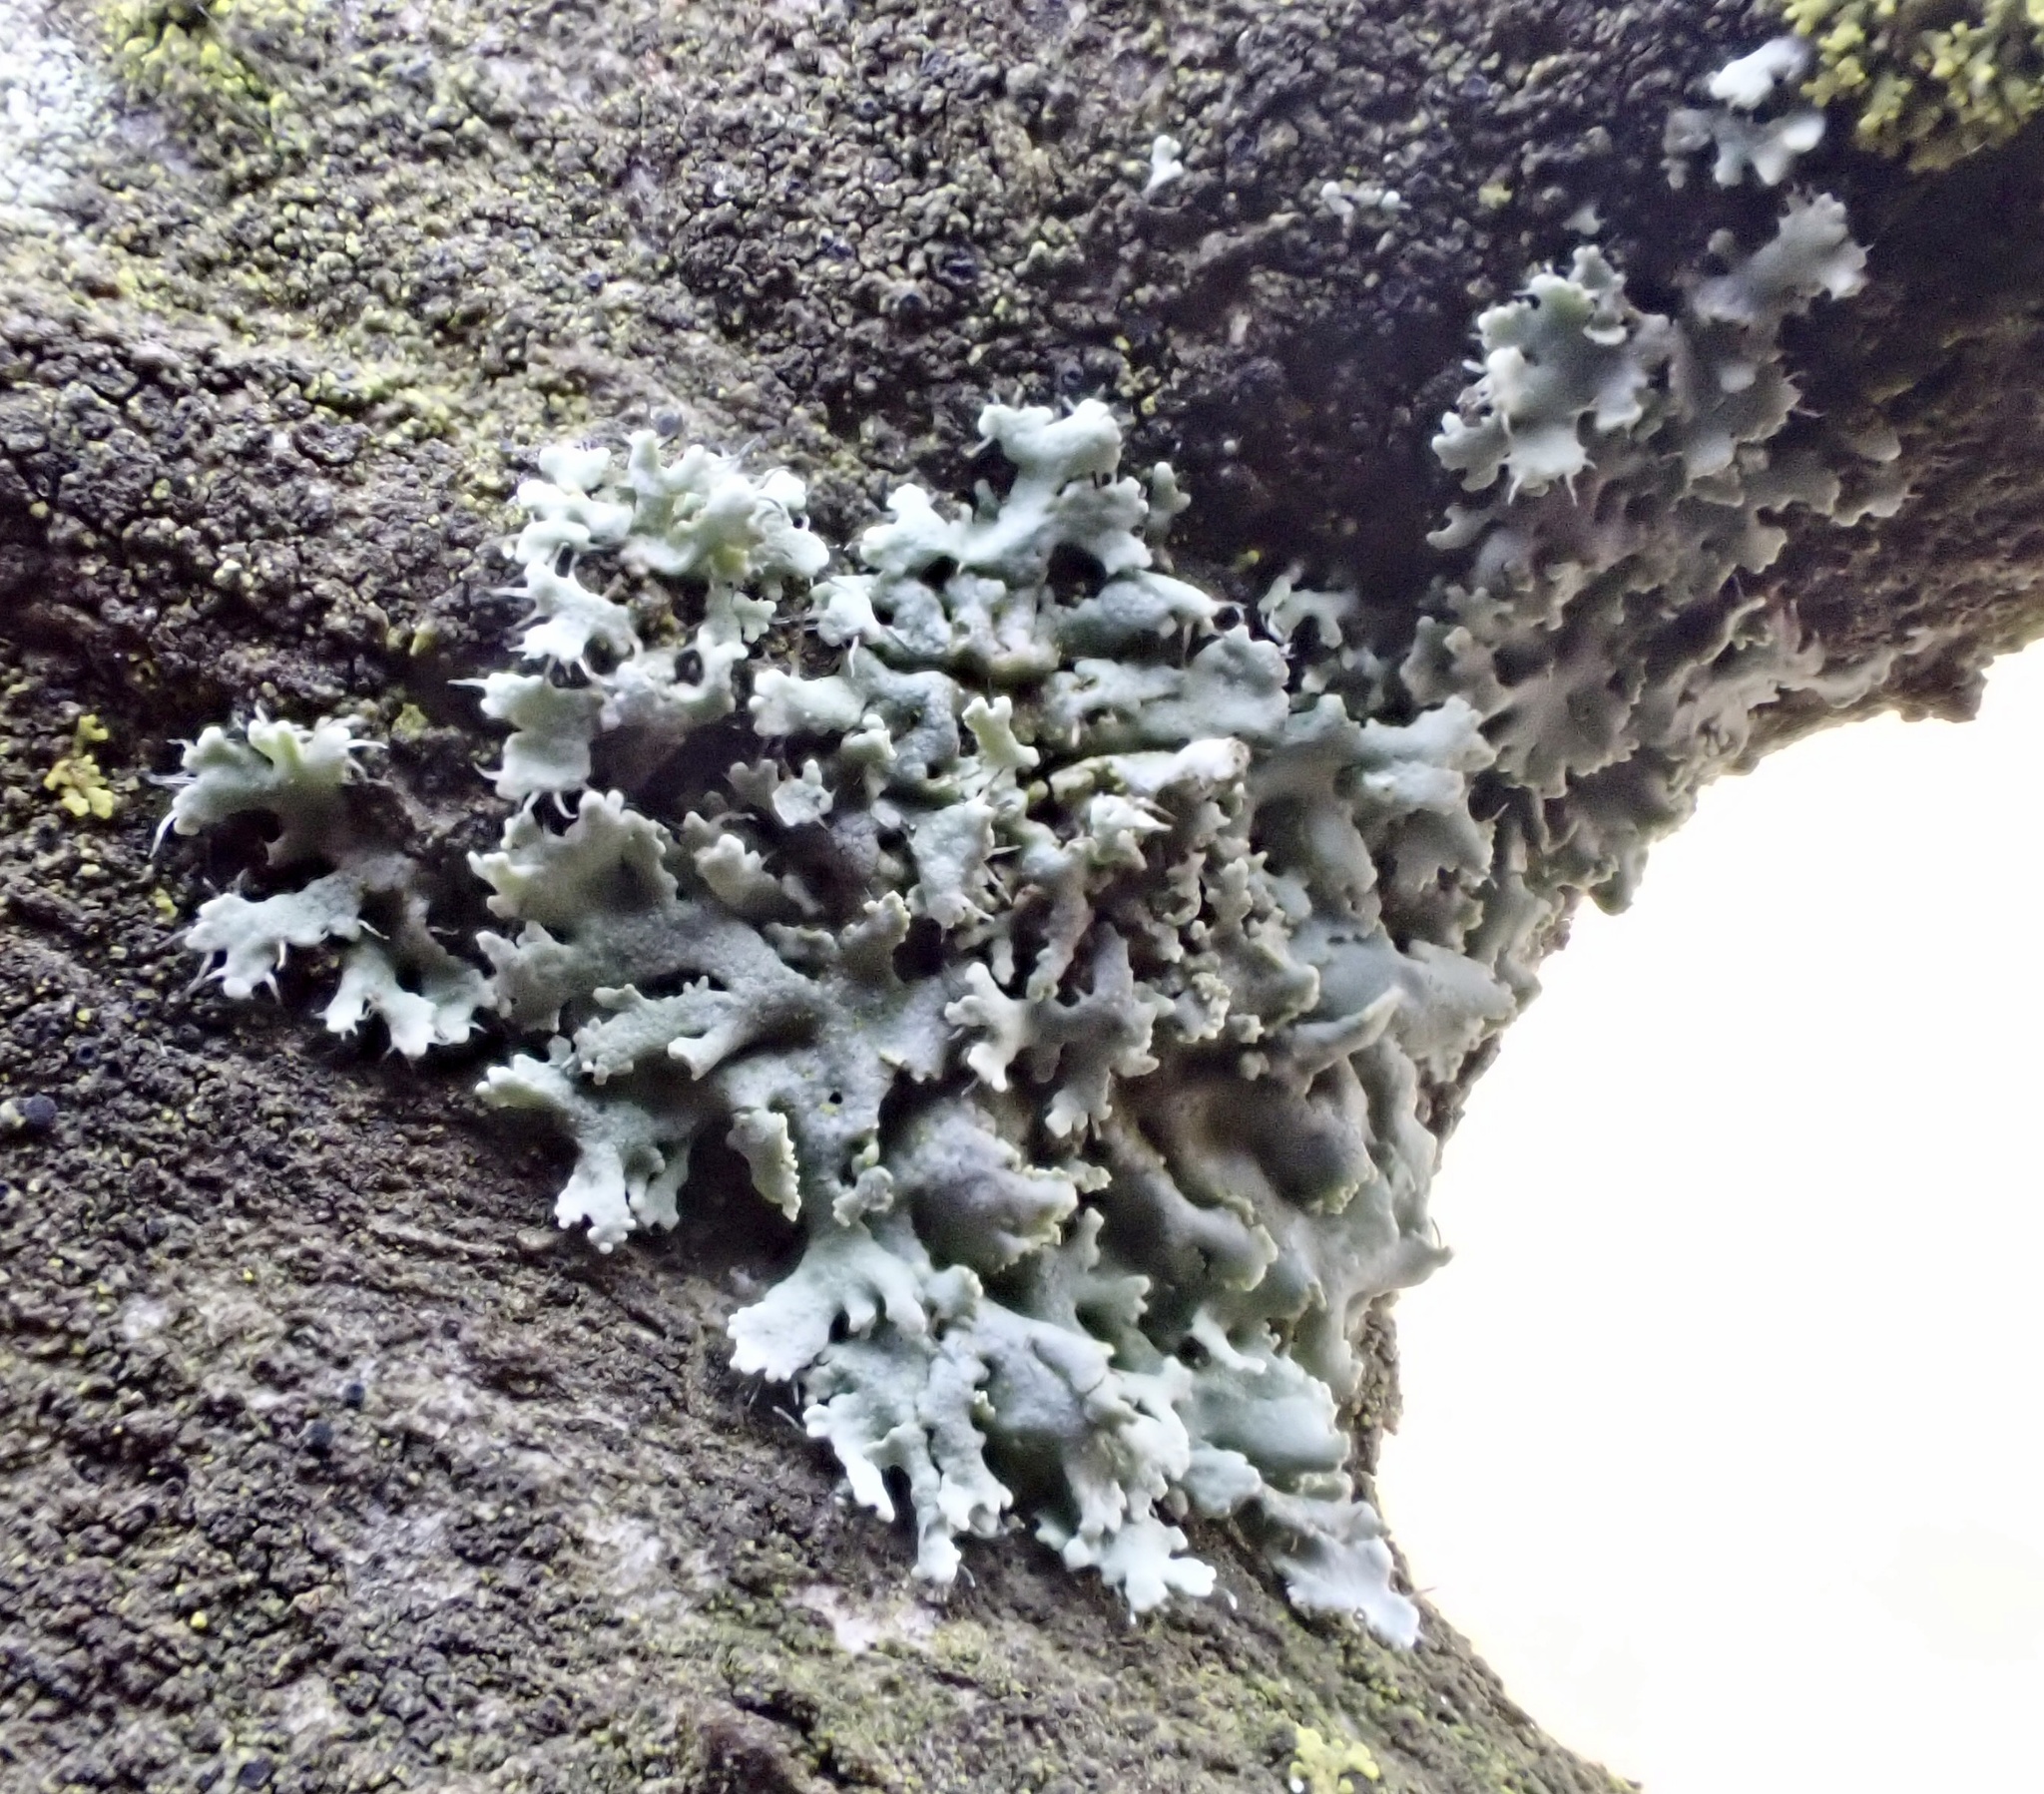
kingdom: Fungi
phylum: Ascomycota
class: Lecanoromycetes
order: Caliciales
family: Physciaceae
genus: Physcia
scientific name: Physcia adscendens
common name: Hooded rosette lichen
